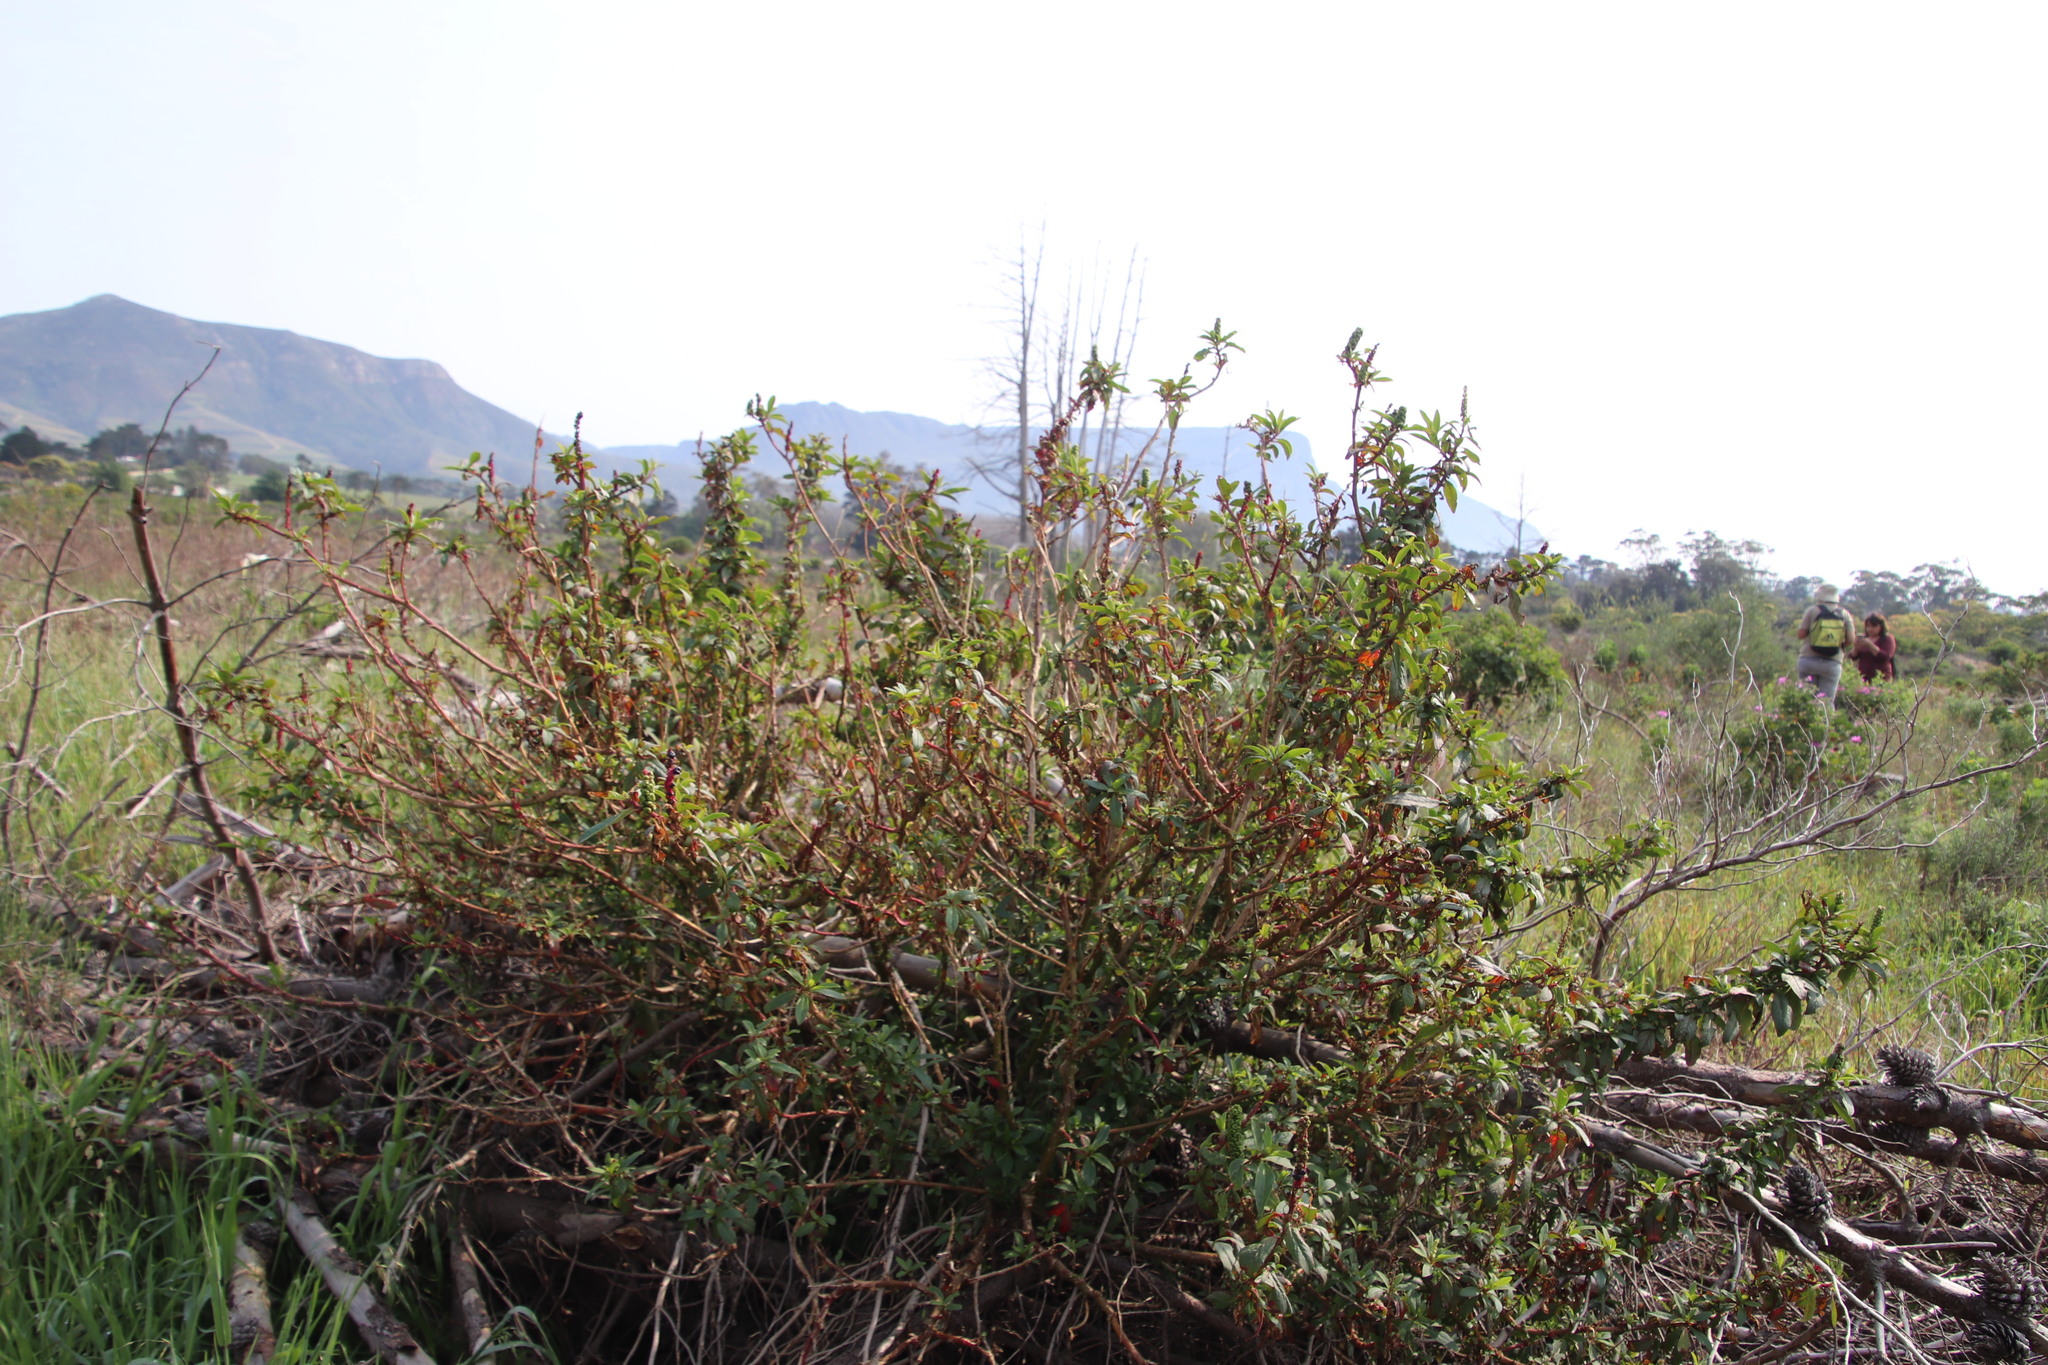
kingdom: Plantae
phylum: Tracheophyta
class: Magnoliopsida
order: Caryophyllales
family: Phytolaccaceae
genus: Phytolacca
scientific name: Phytolacca icosandra
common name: Button pokeweed
